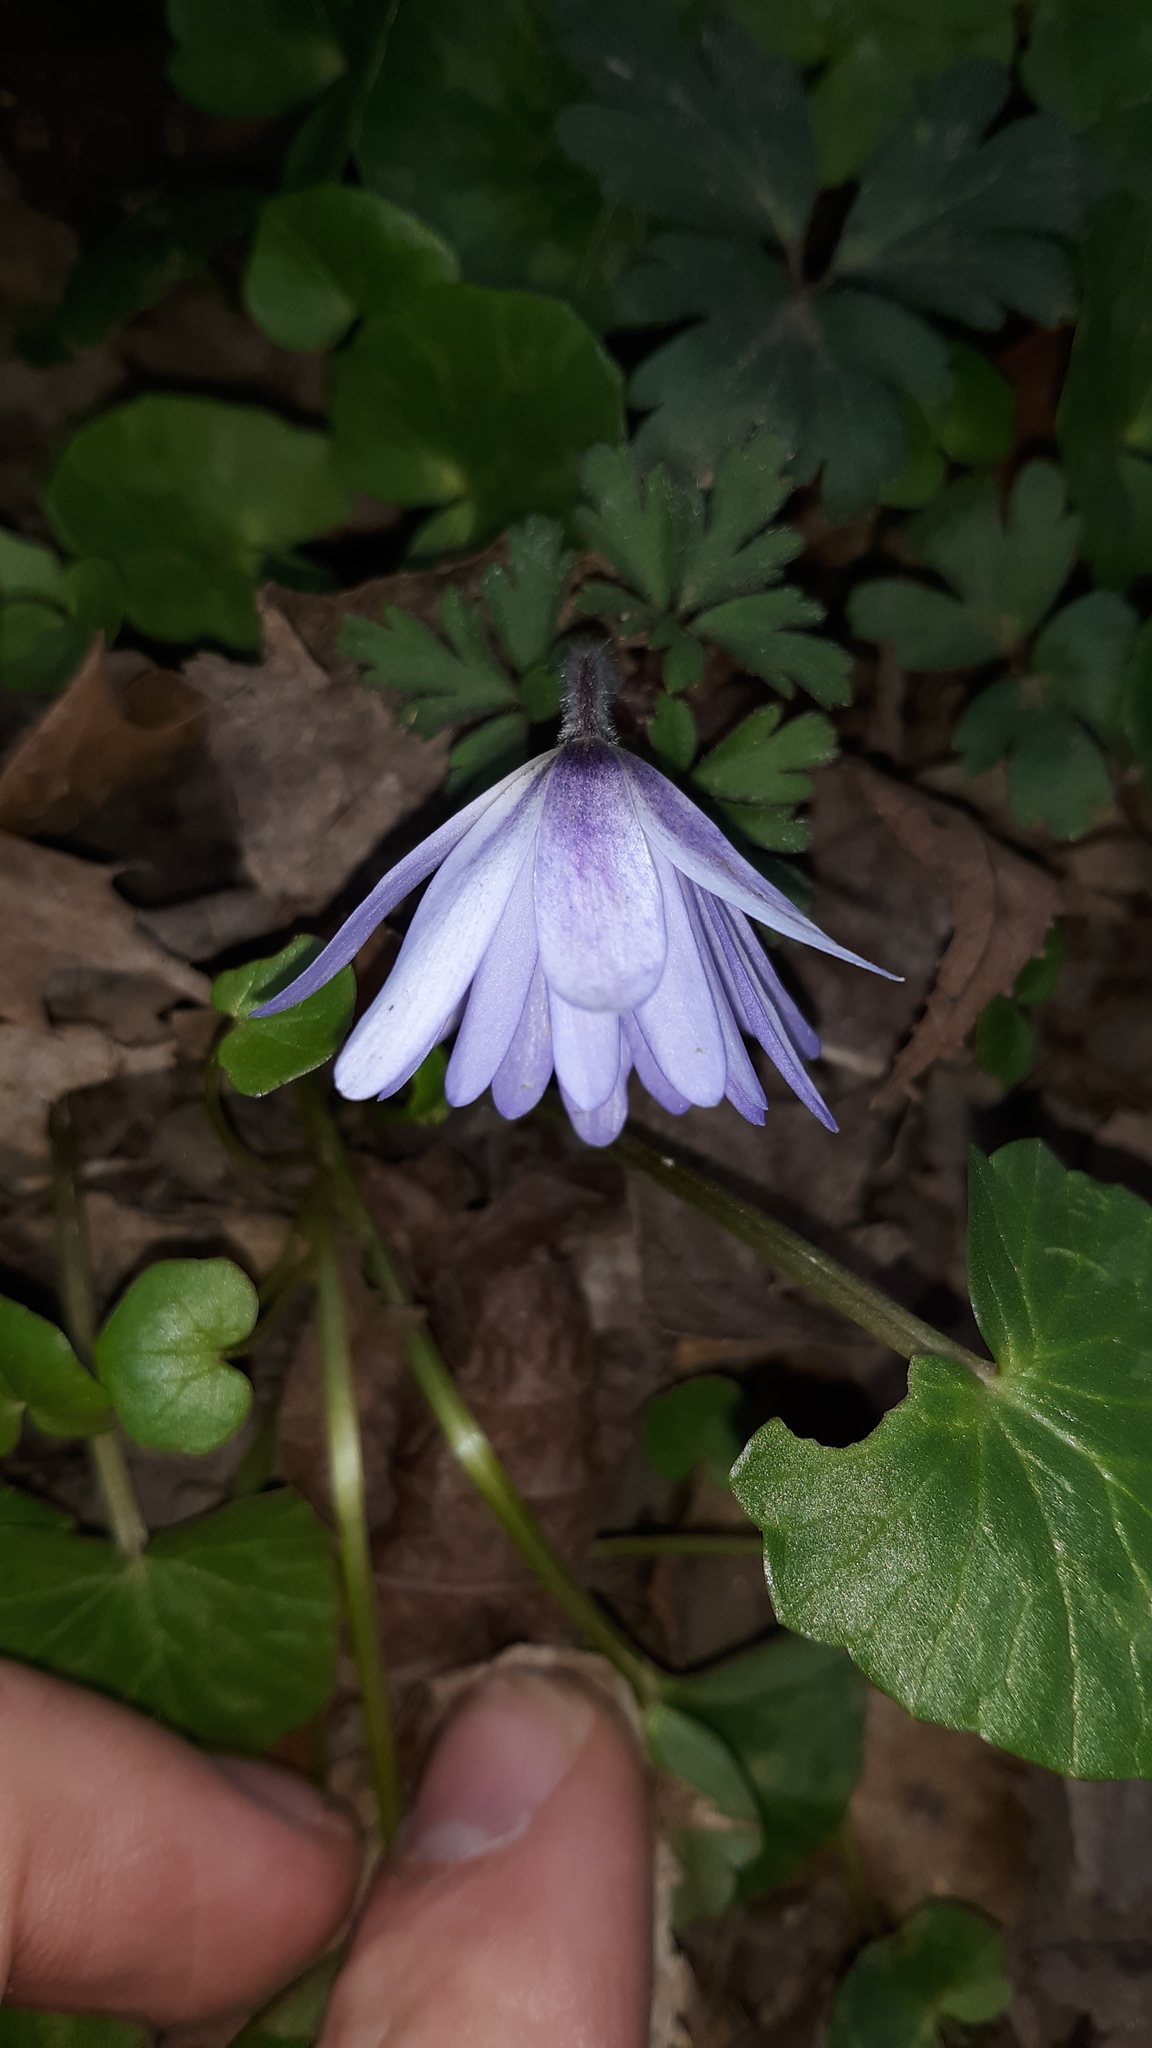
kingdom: Plantae
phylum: Tracheophyta
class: Magnoliopsida
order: Ranunculales
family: Ranunculaceae
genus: Anemone
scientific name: Anemone blanda
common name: Balkan anemone
